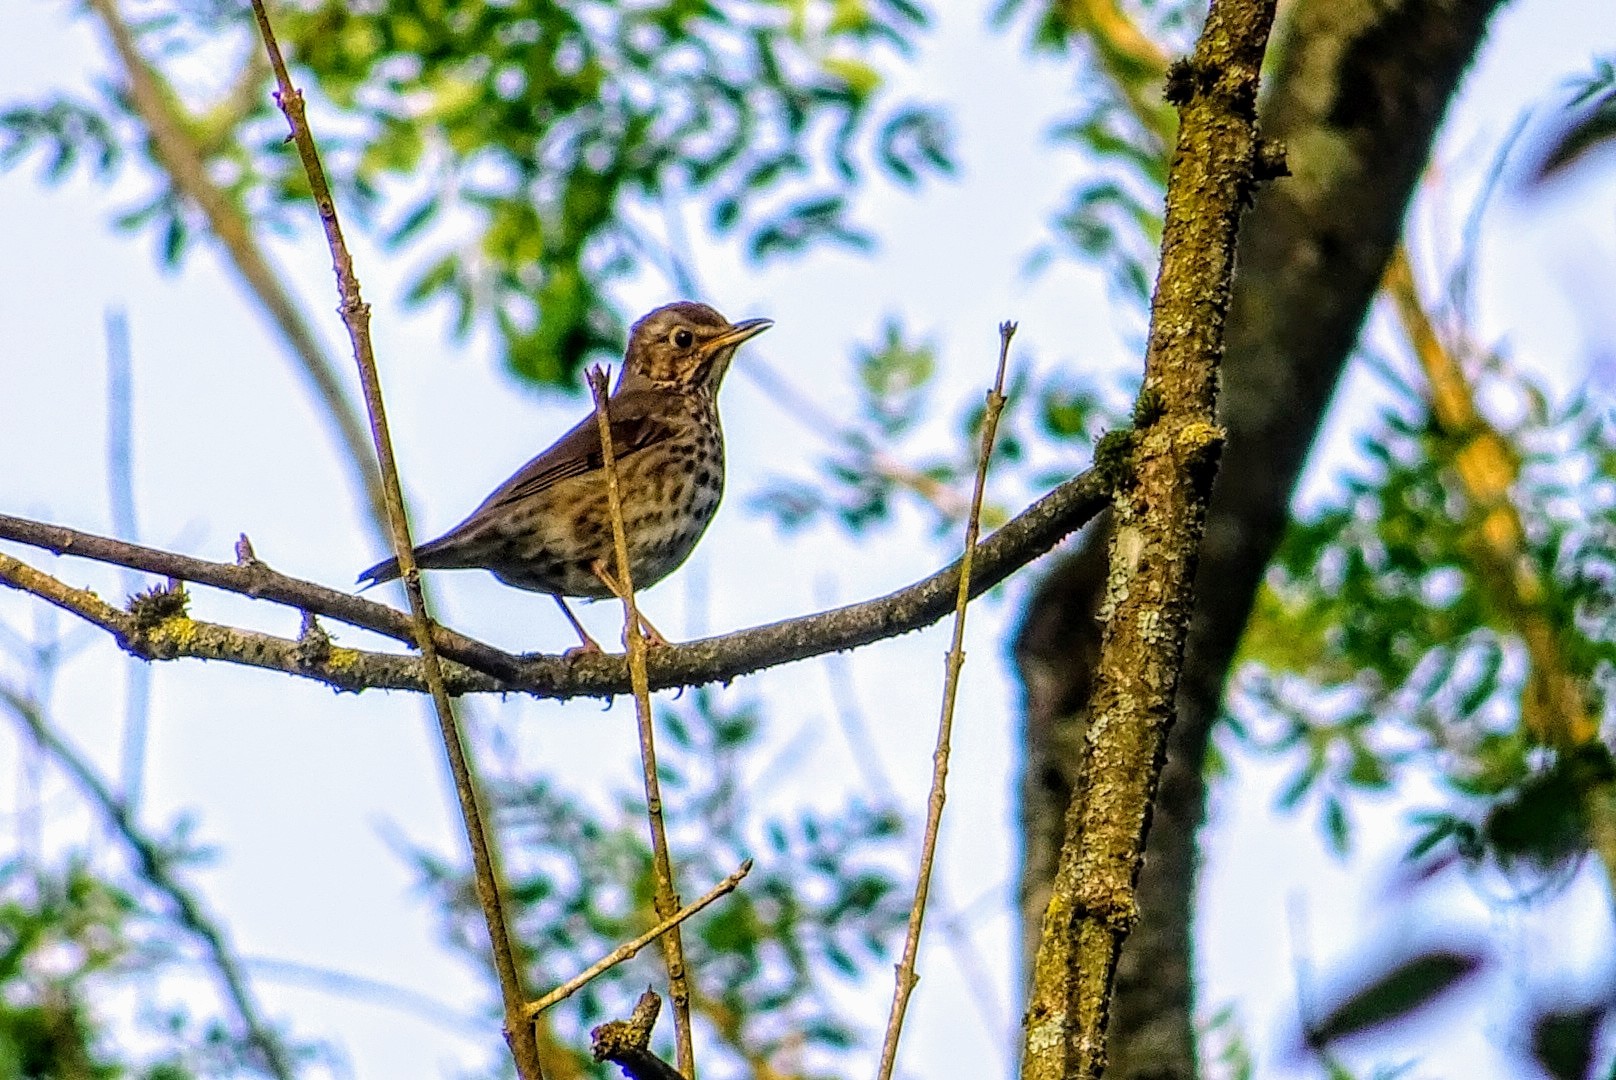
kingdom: Animalia
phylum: Chordata
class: Aves
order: Passeriformes
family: Turdidae
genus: Turdus
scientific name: Turdus philomelos
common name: Song thrush
